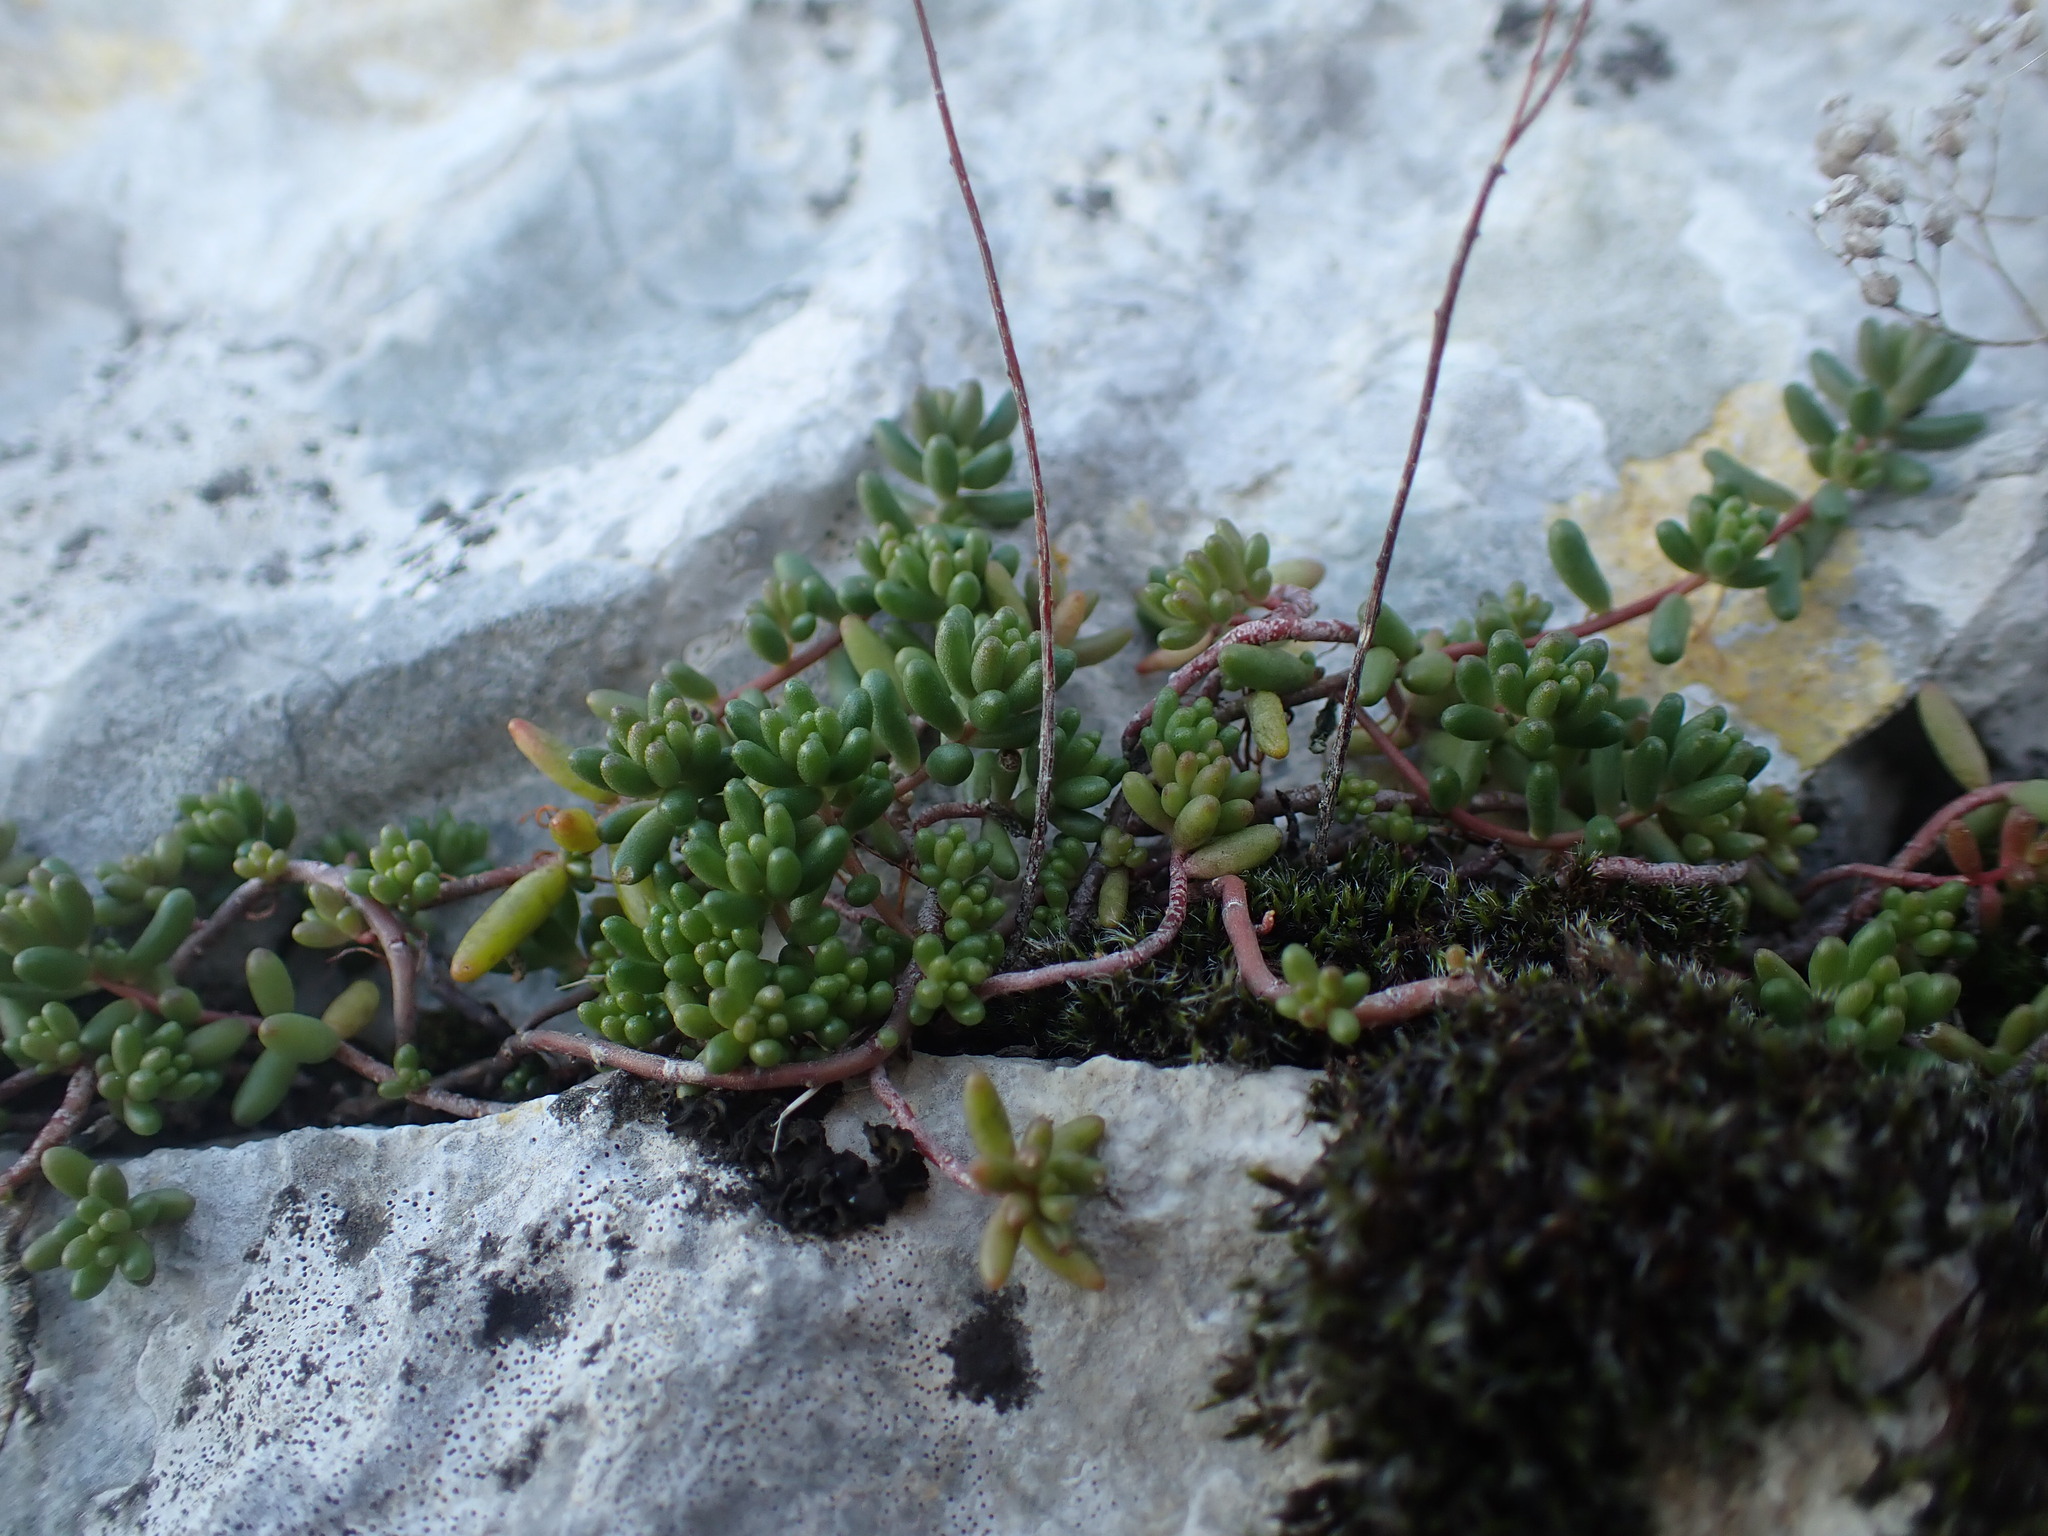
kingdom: Plantae
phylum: Tracheophyta
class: Magnoliopsida
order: Saxifragales
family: Crassulaceae
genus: Sedum
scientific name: Sedum album
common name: White stonecrop
